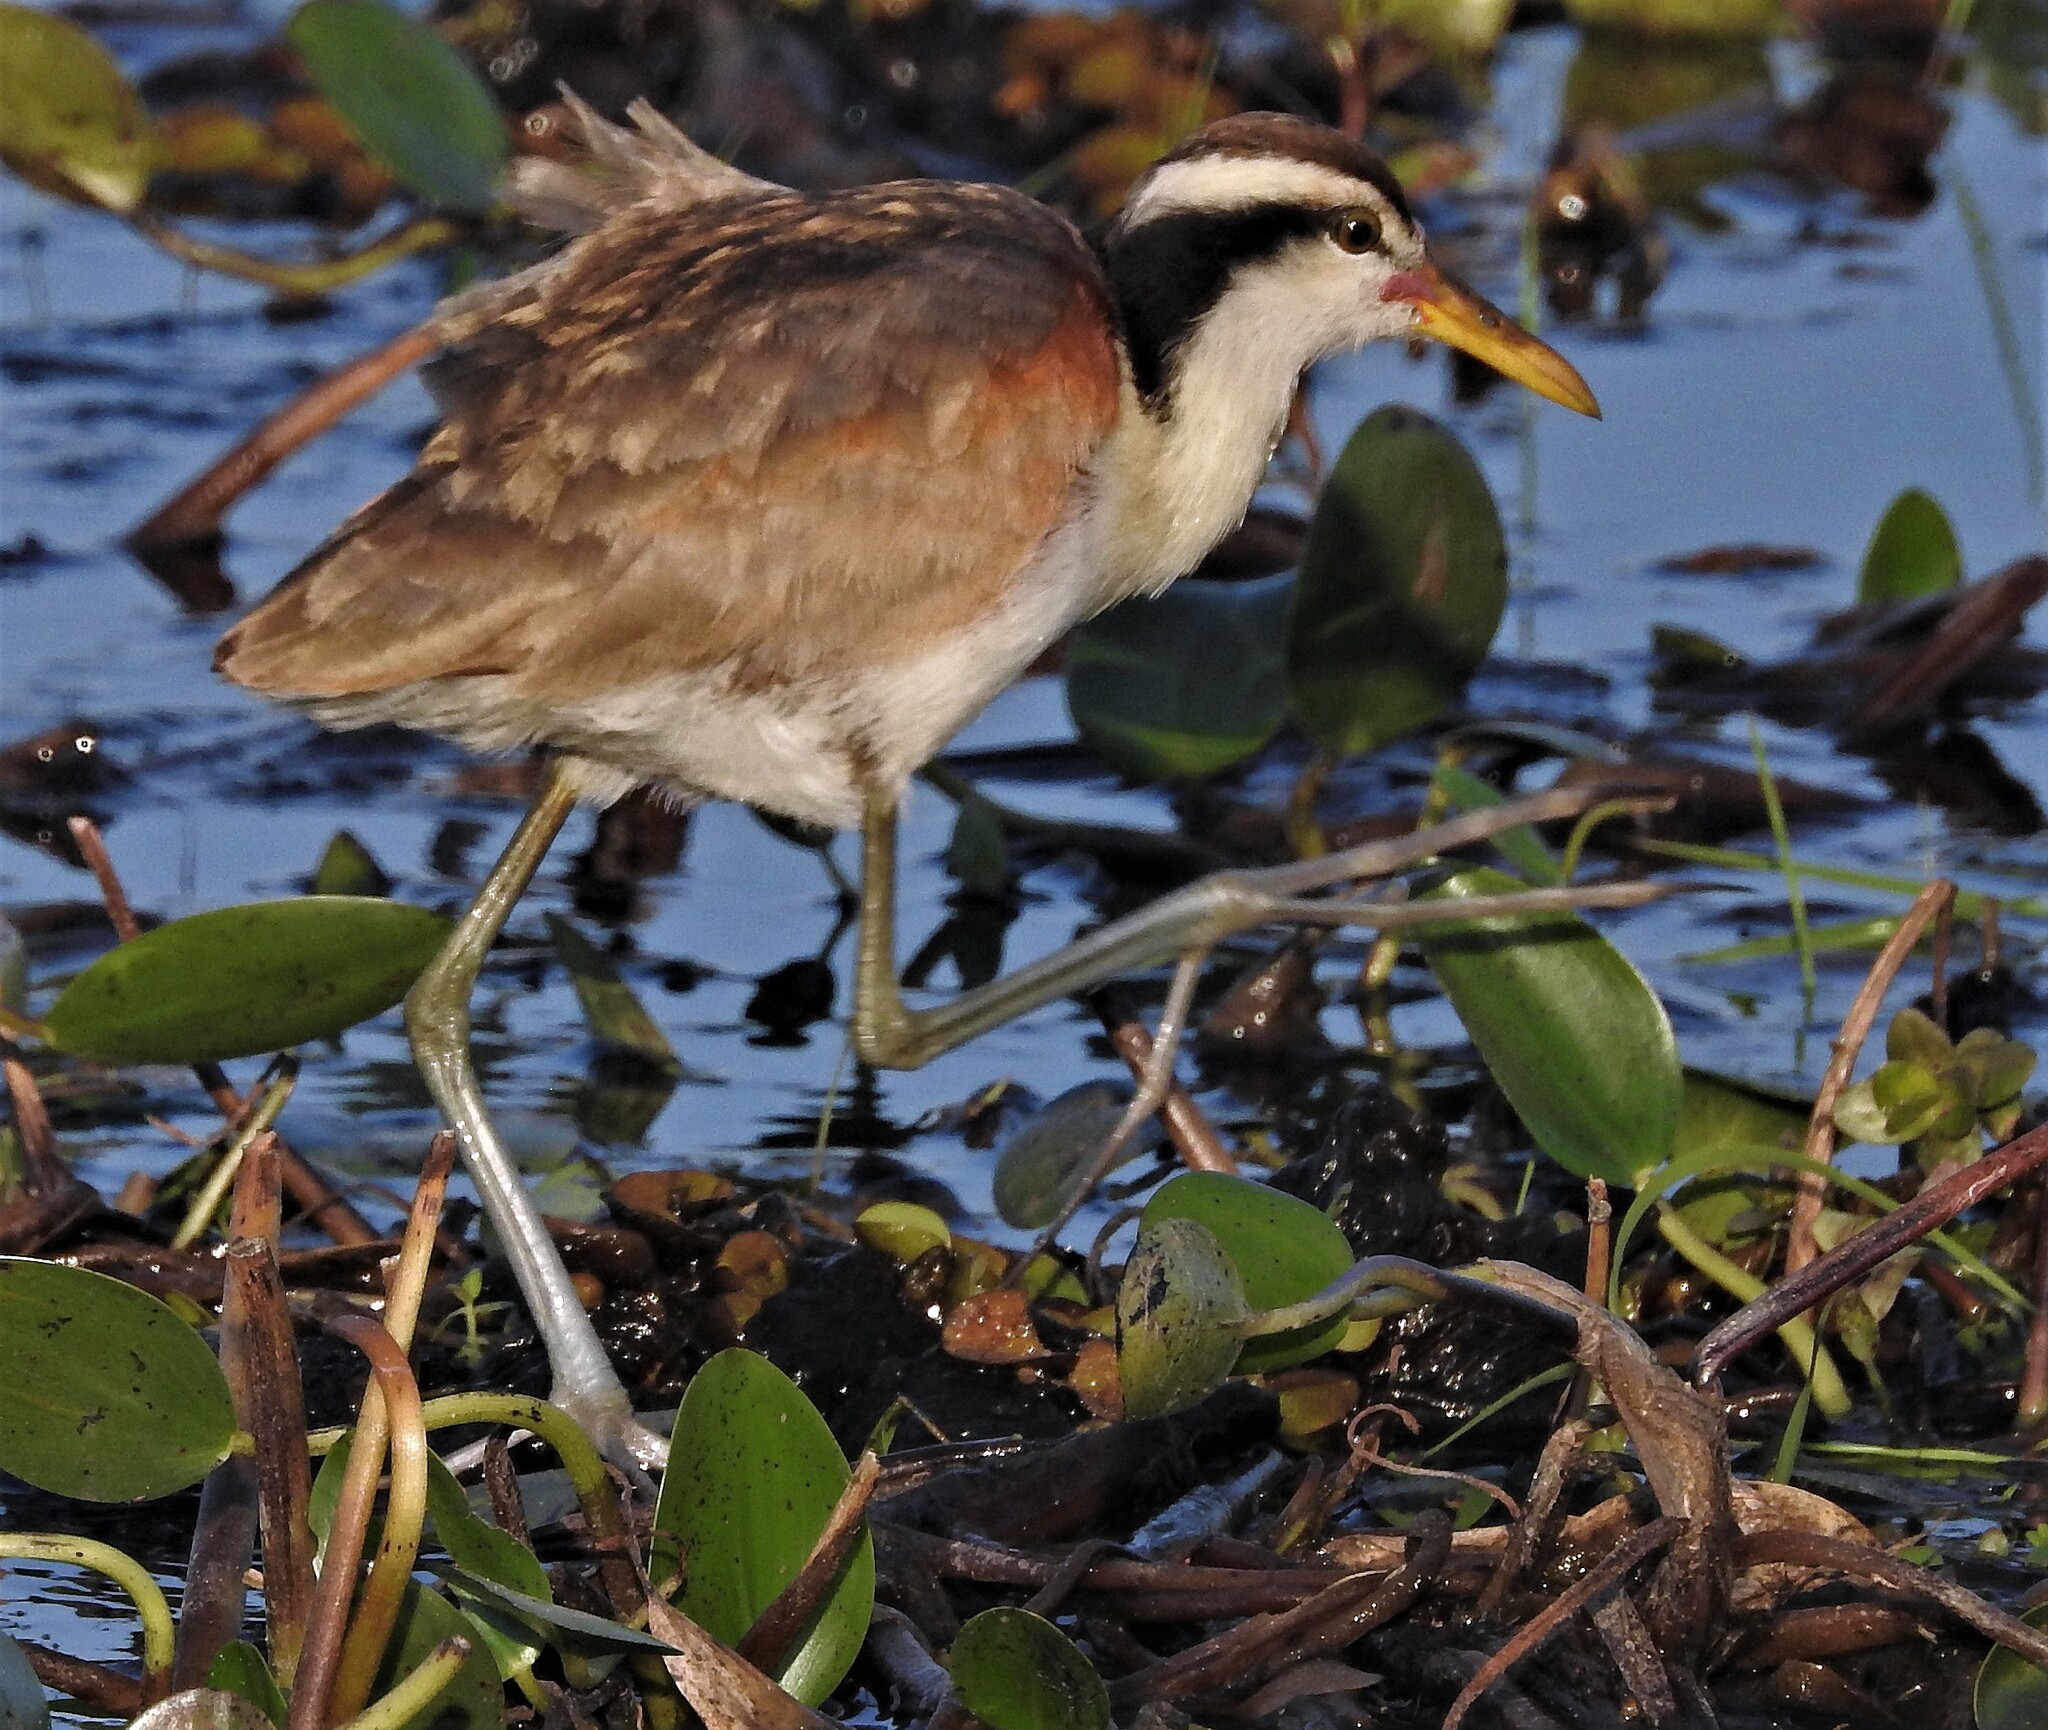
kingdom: Animalia
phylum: Chordata
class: Aves
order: Charadriiformes
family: Jacanidae
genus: Jacana
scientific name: Jacana jacana
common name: Wattled jacana
